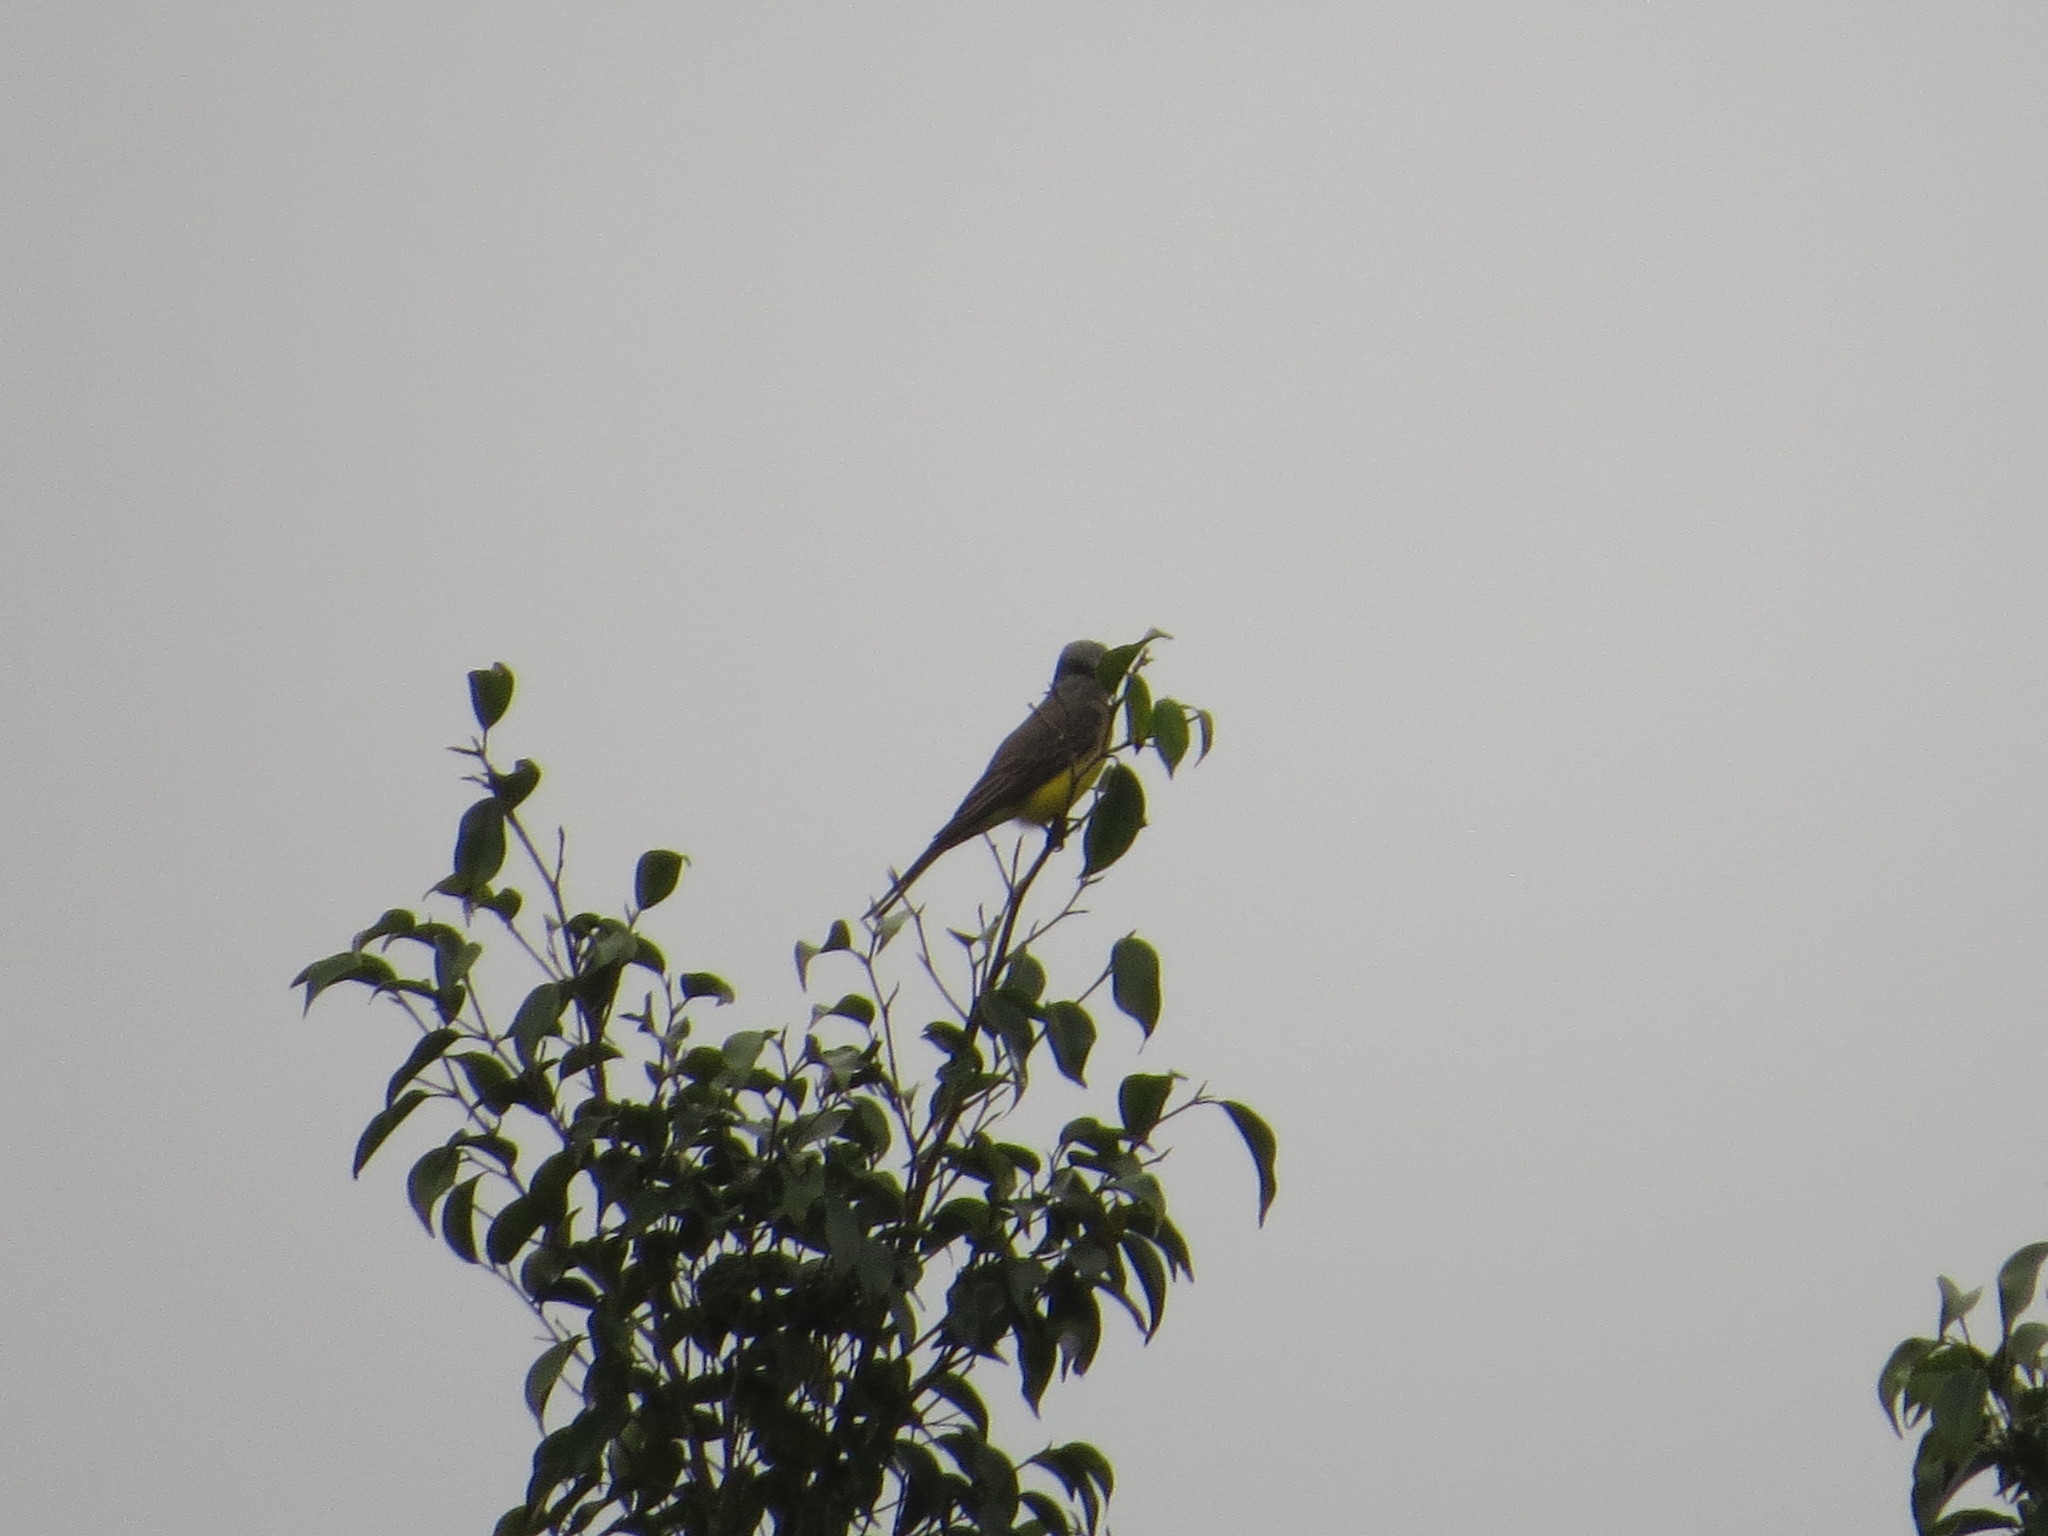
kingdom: Animalia
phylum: Chordata
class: Aves
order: Passeriformes
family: Tyrannidae
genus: Tyrannus
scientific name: Tyrannus melancholicus
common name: Tropical kingbird
